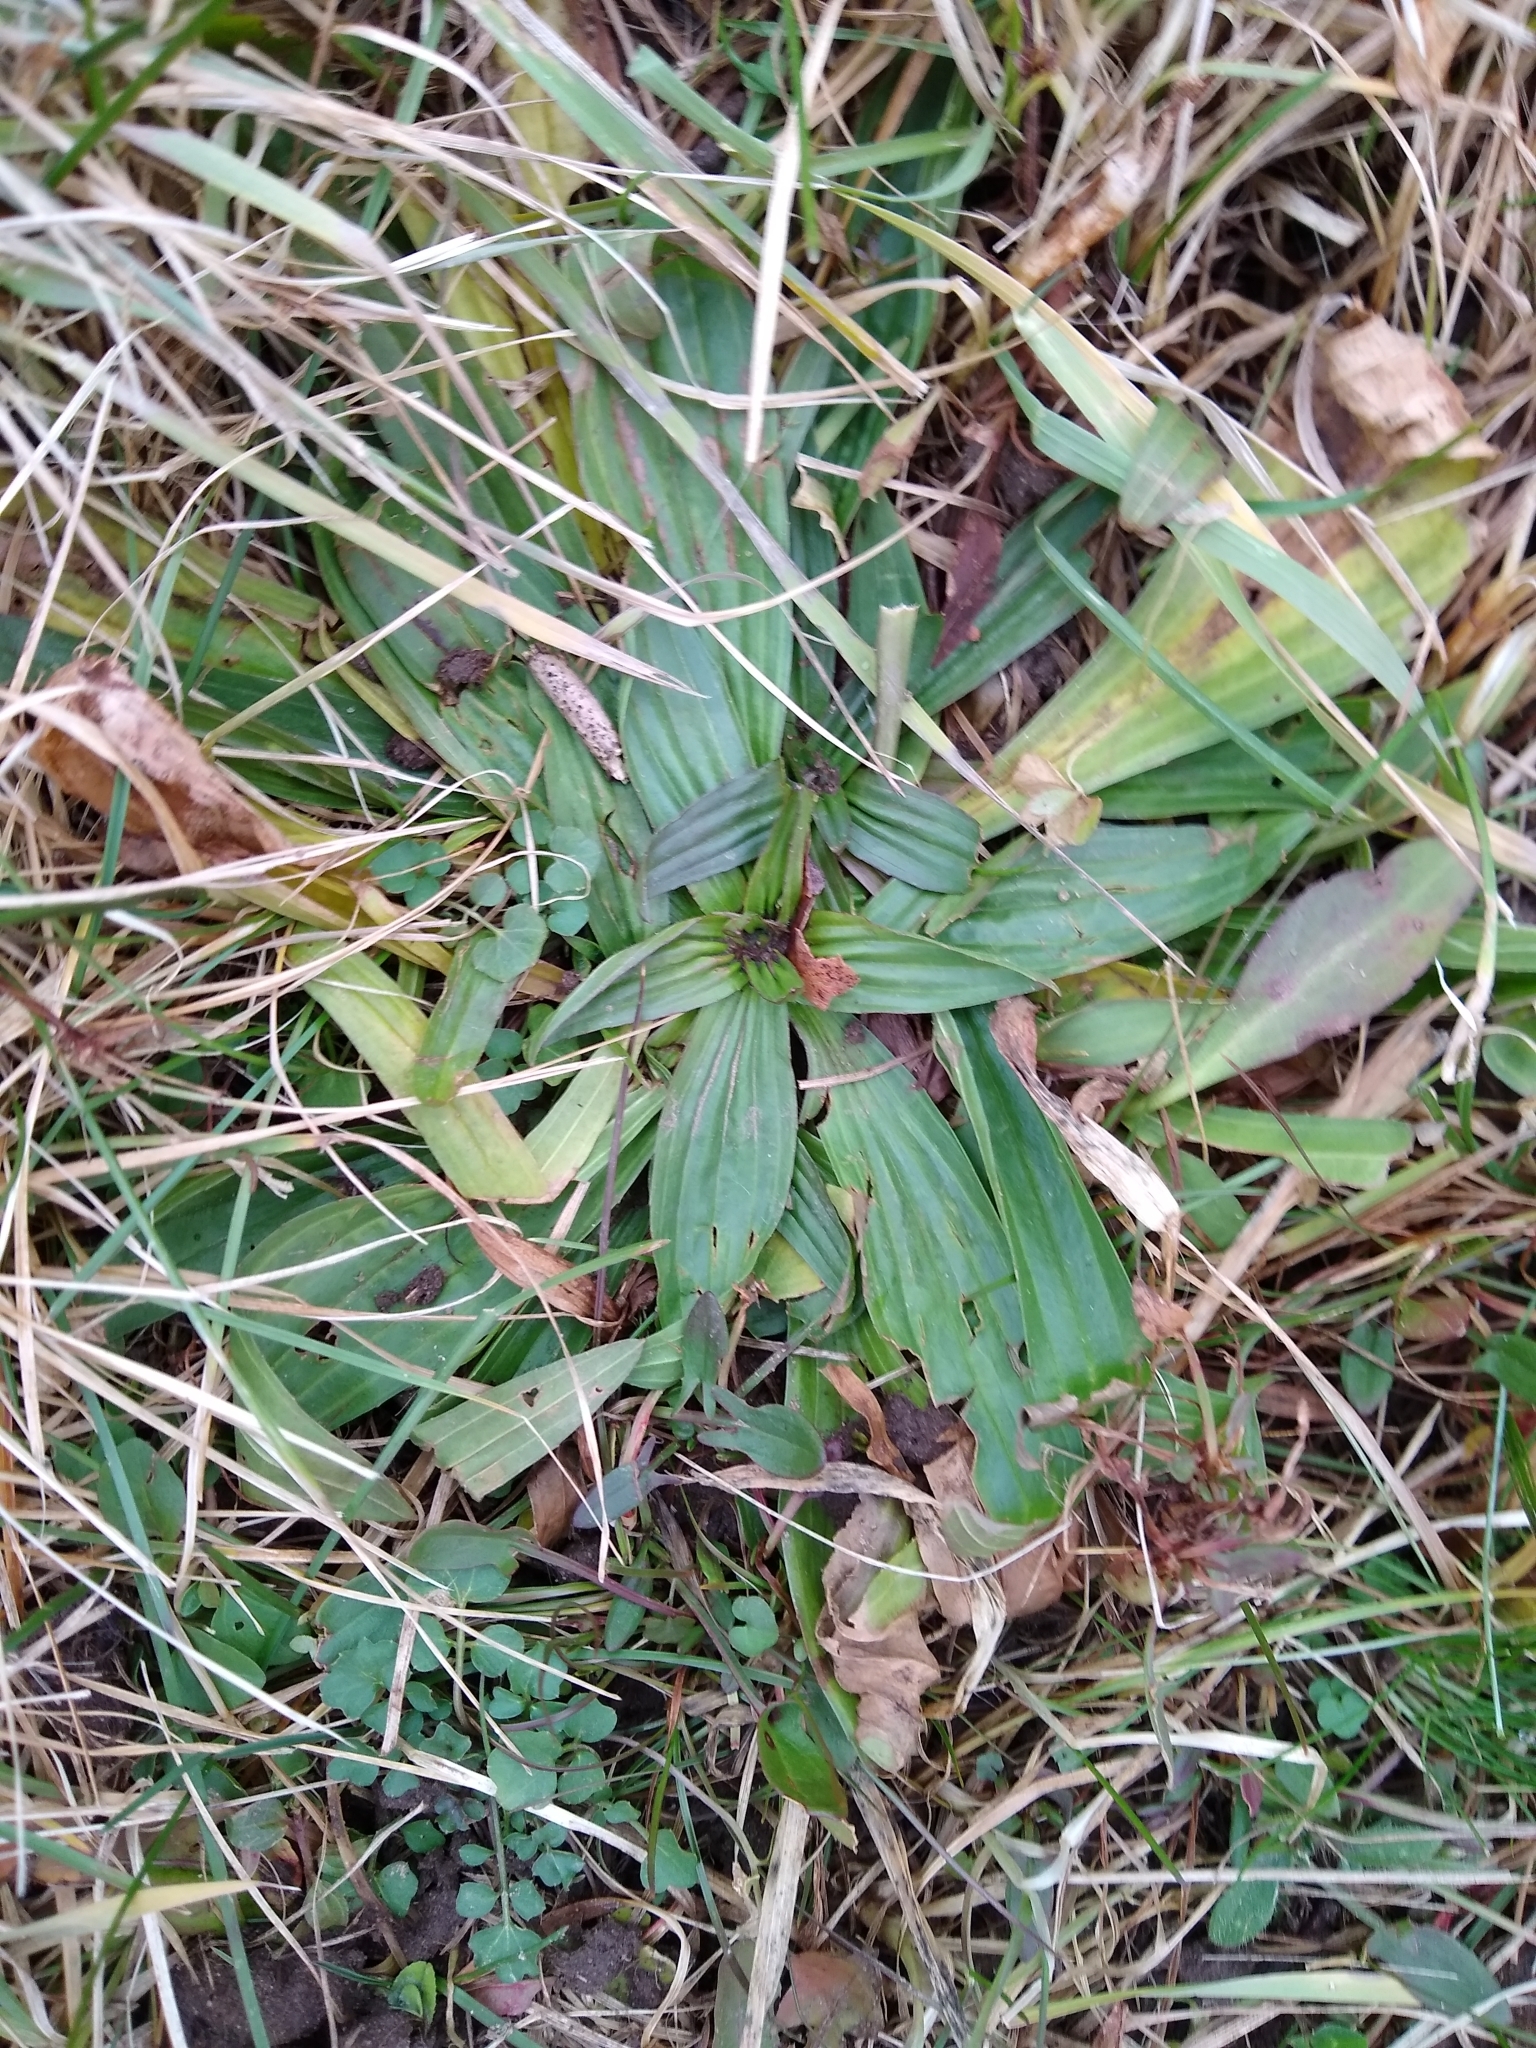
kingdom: Plantae
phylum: Tracheophyta
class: Magnoliopsida
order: Lamiales
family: Plantaginaceae
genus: Plantago
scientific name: Plantago lanceolata
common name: Ribwort plantain
